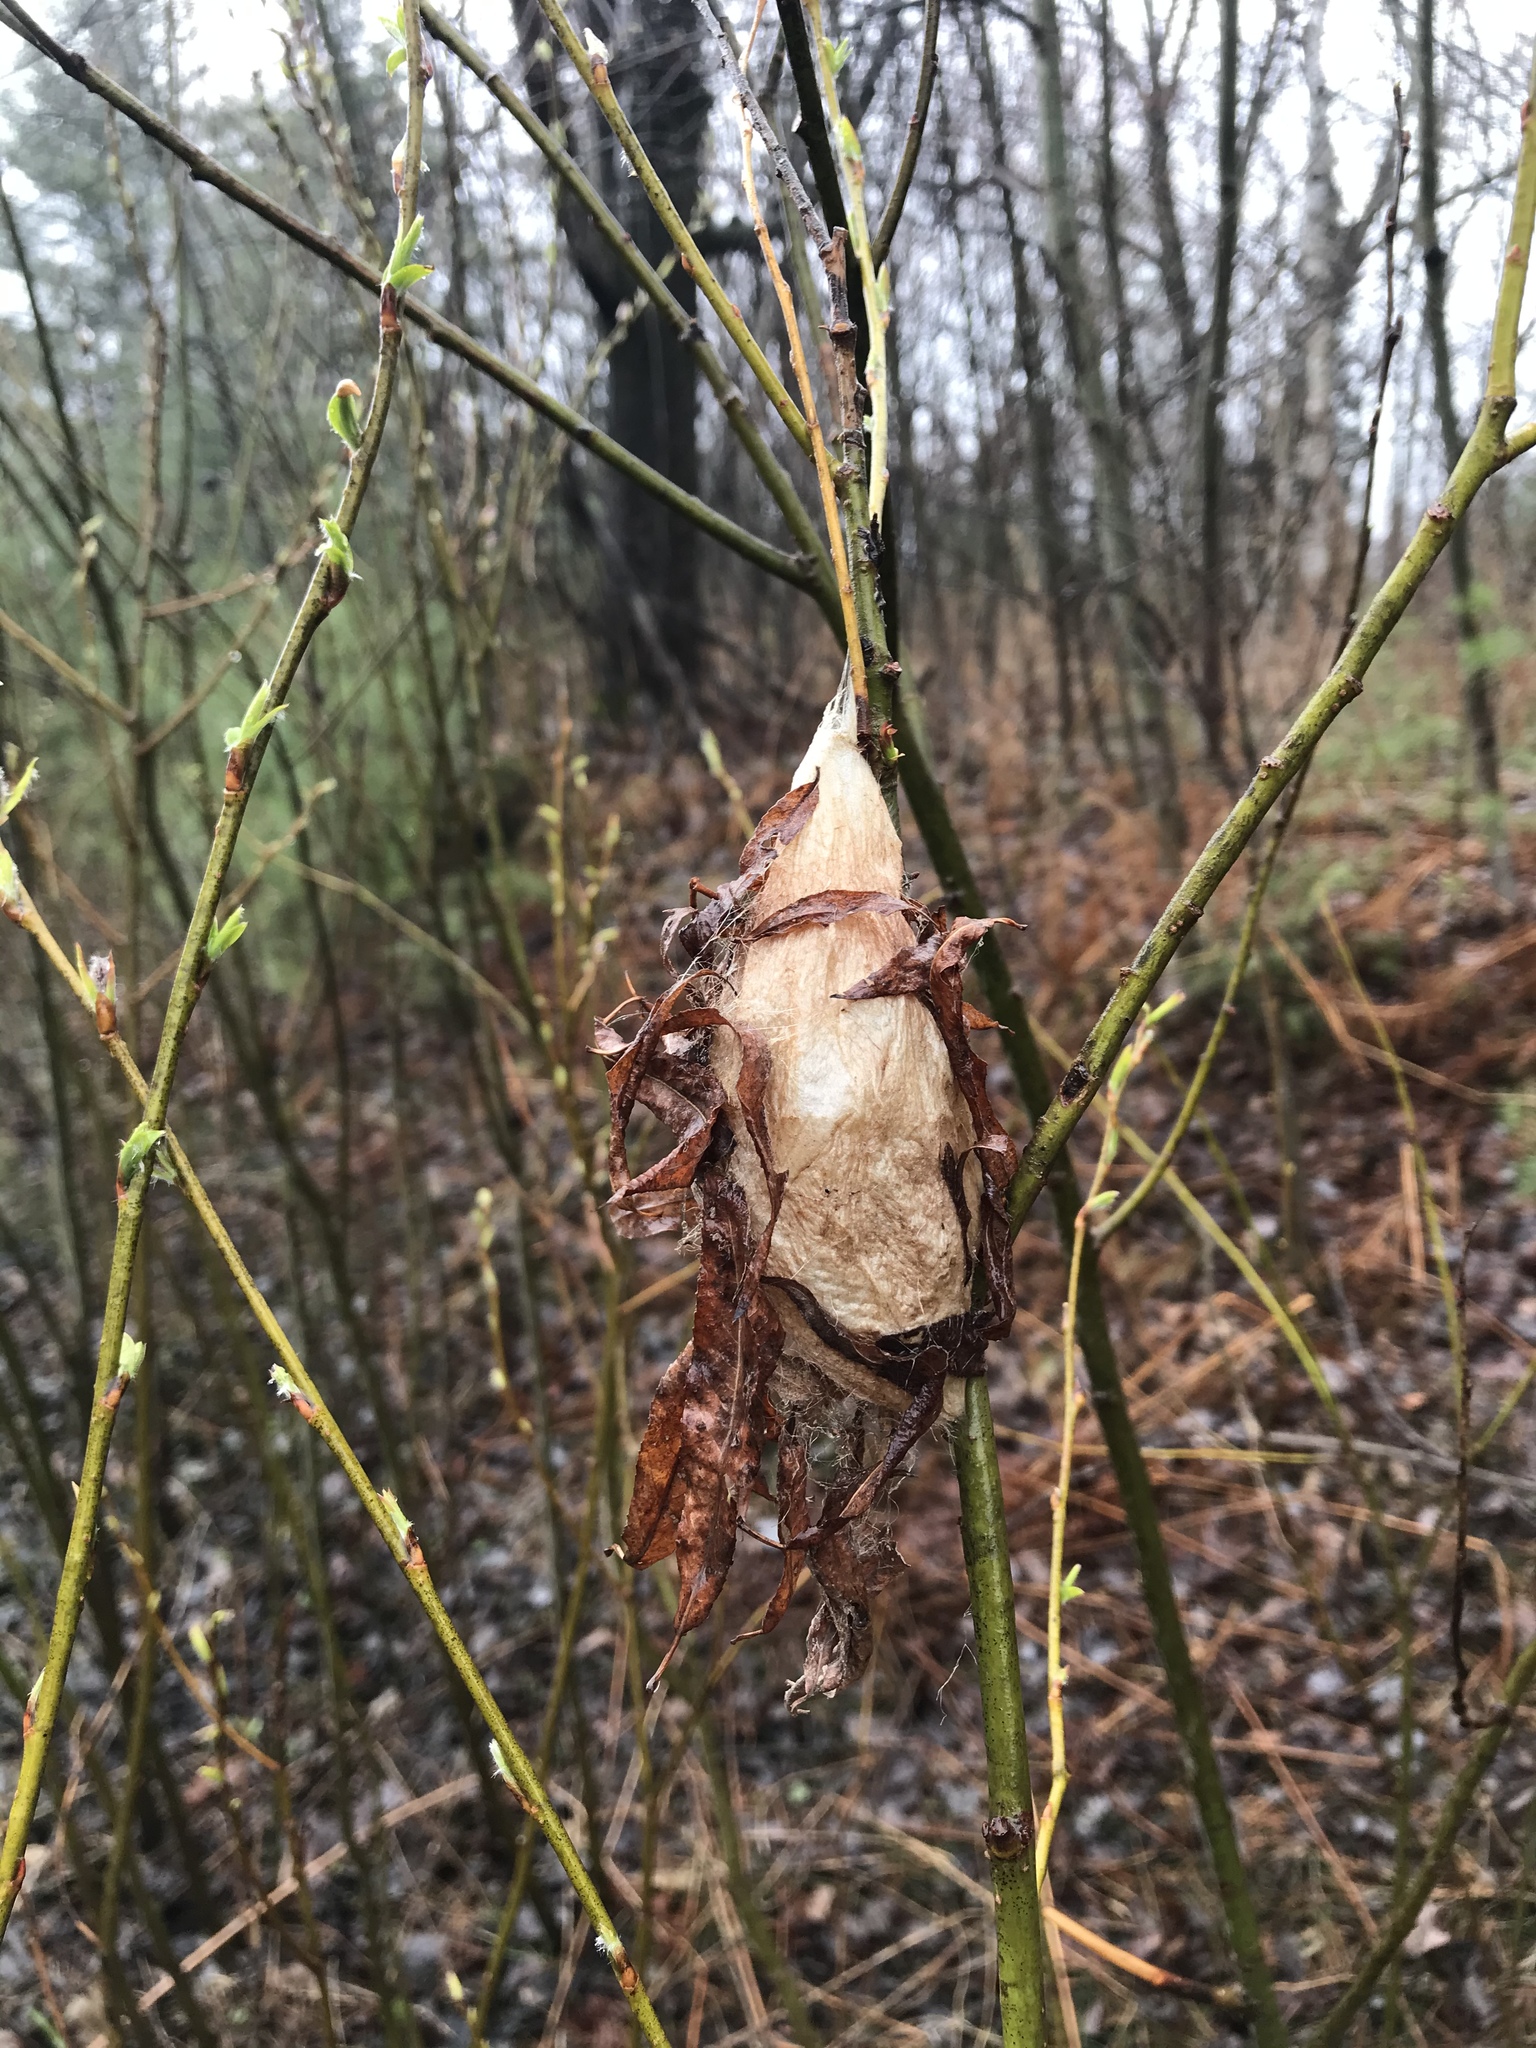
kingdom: Animalia
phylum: Arthropoda
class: Insecta
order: Lepidoptera
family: Saturniidae
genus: Hyalophora
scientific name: Hyalophora cecropia
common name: Cecropia silkmoth
